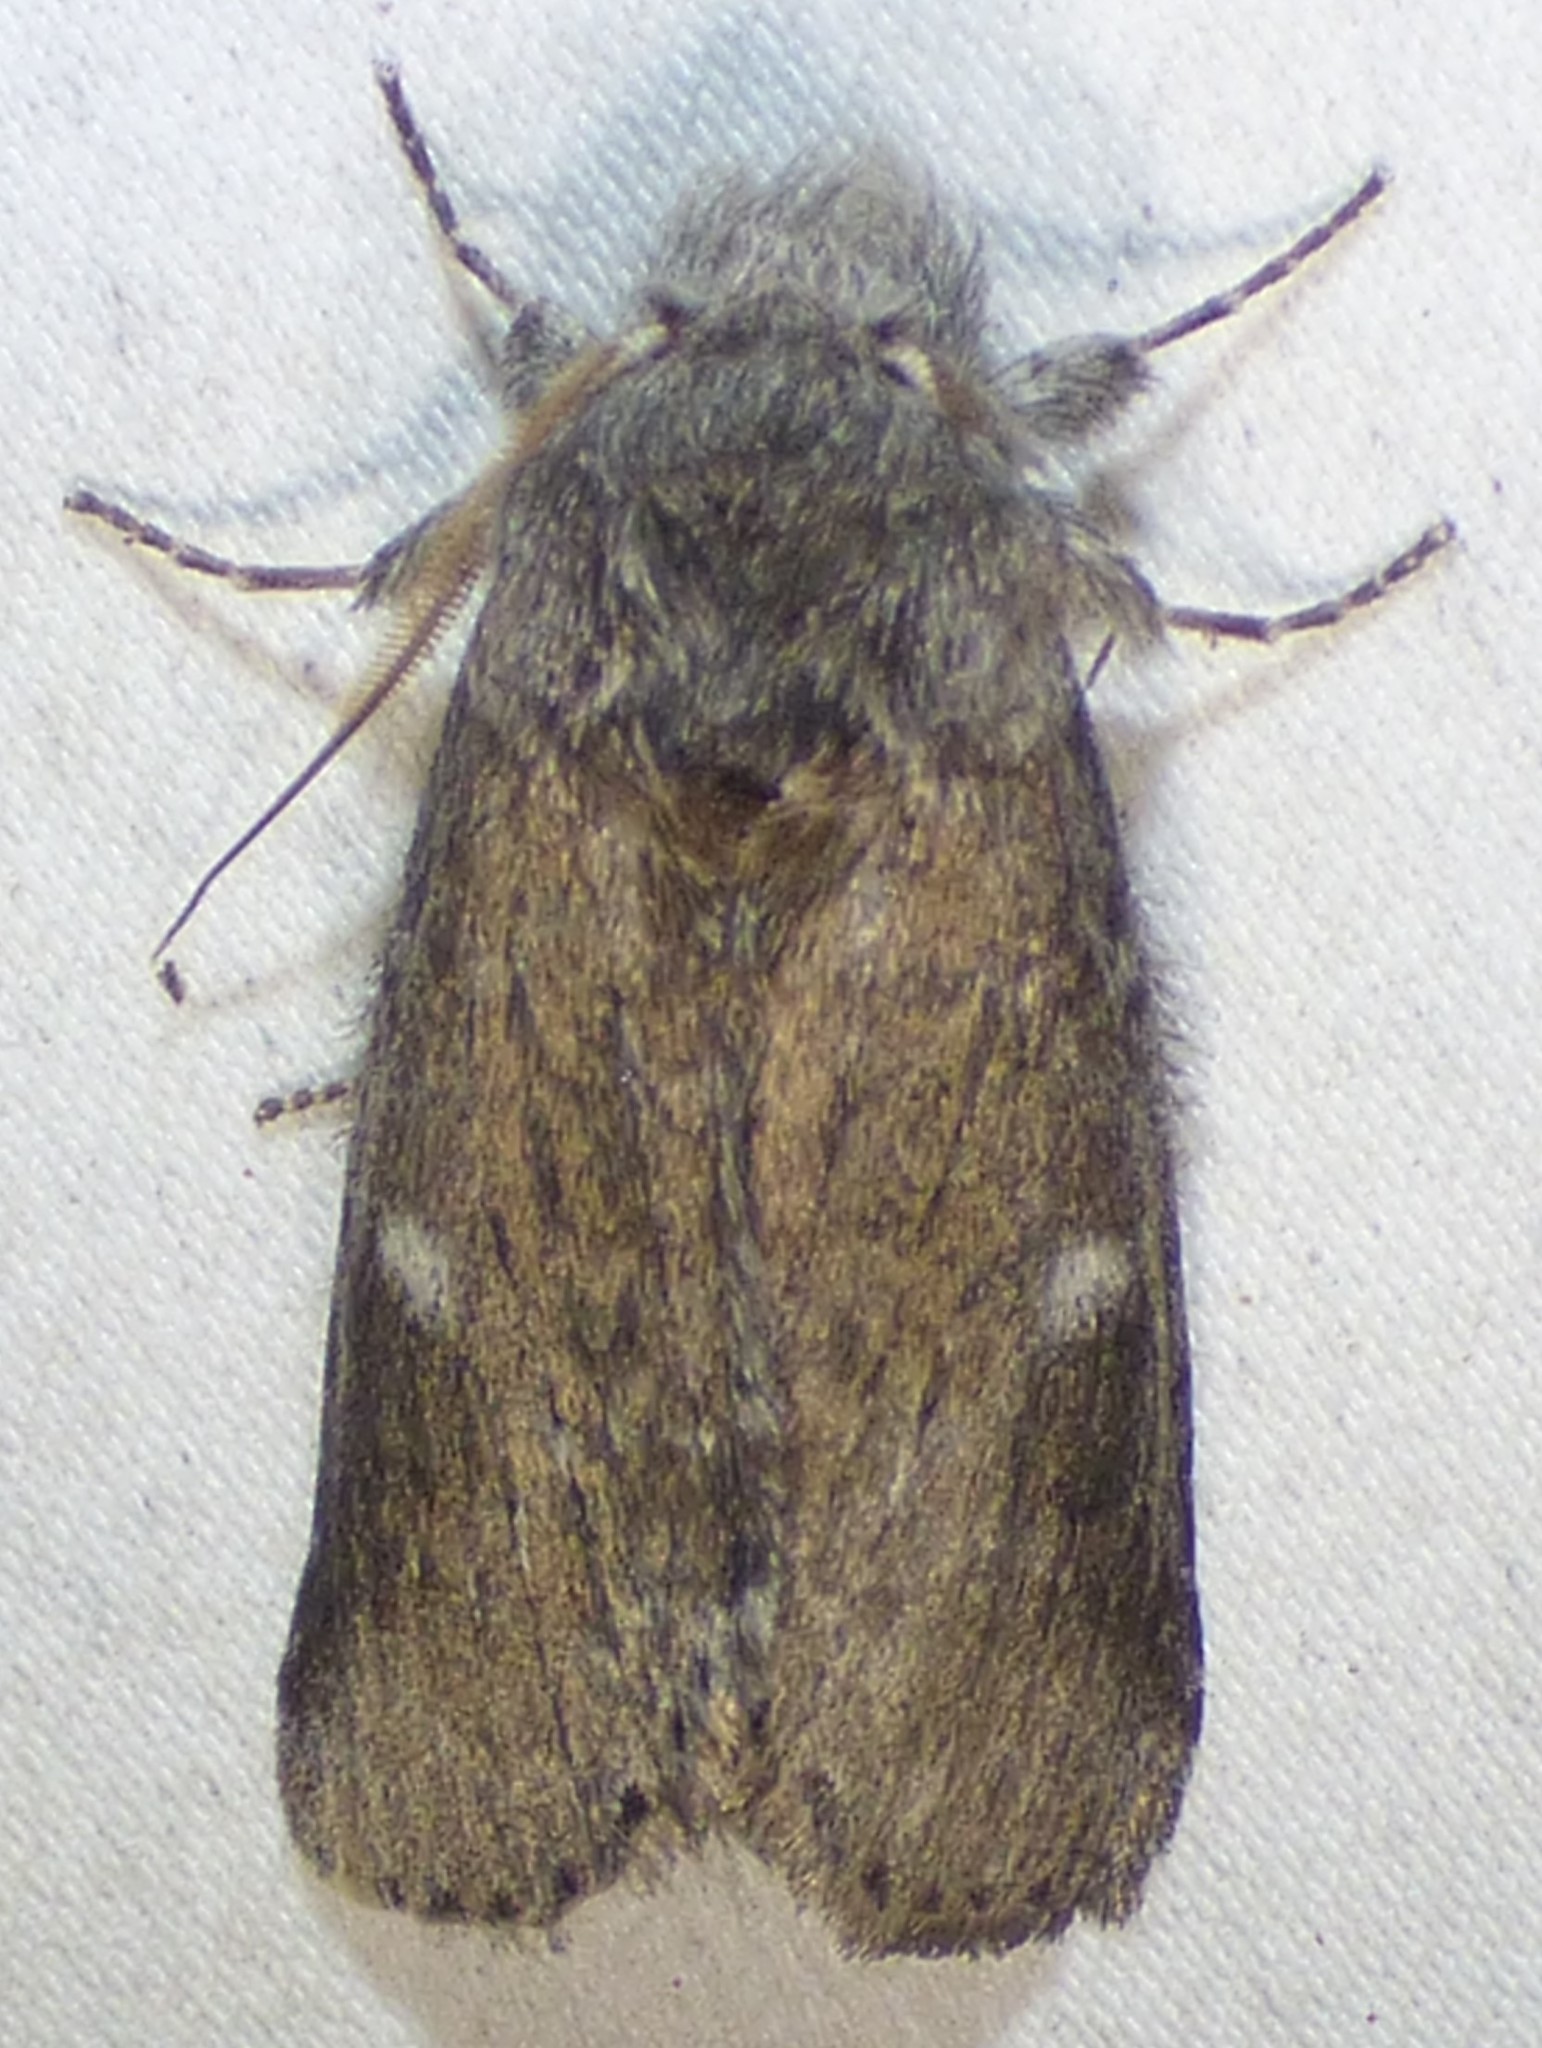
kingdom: Animalia
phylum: Arthropoda
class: Insecta
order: Lepidoptera
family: Notodontidae
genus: Lochmaeus
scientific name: Lochmaeus manteo
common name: Variable oakleaf caterpillar moth
